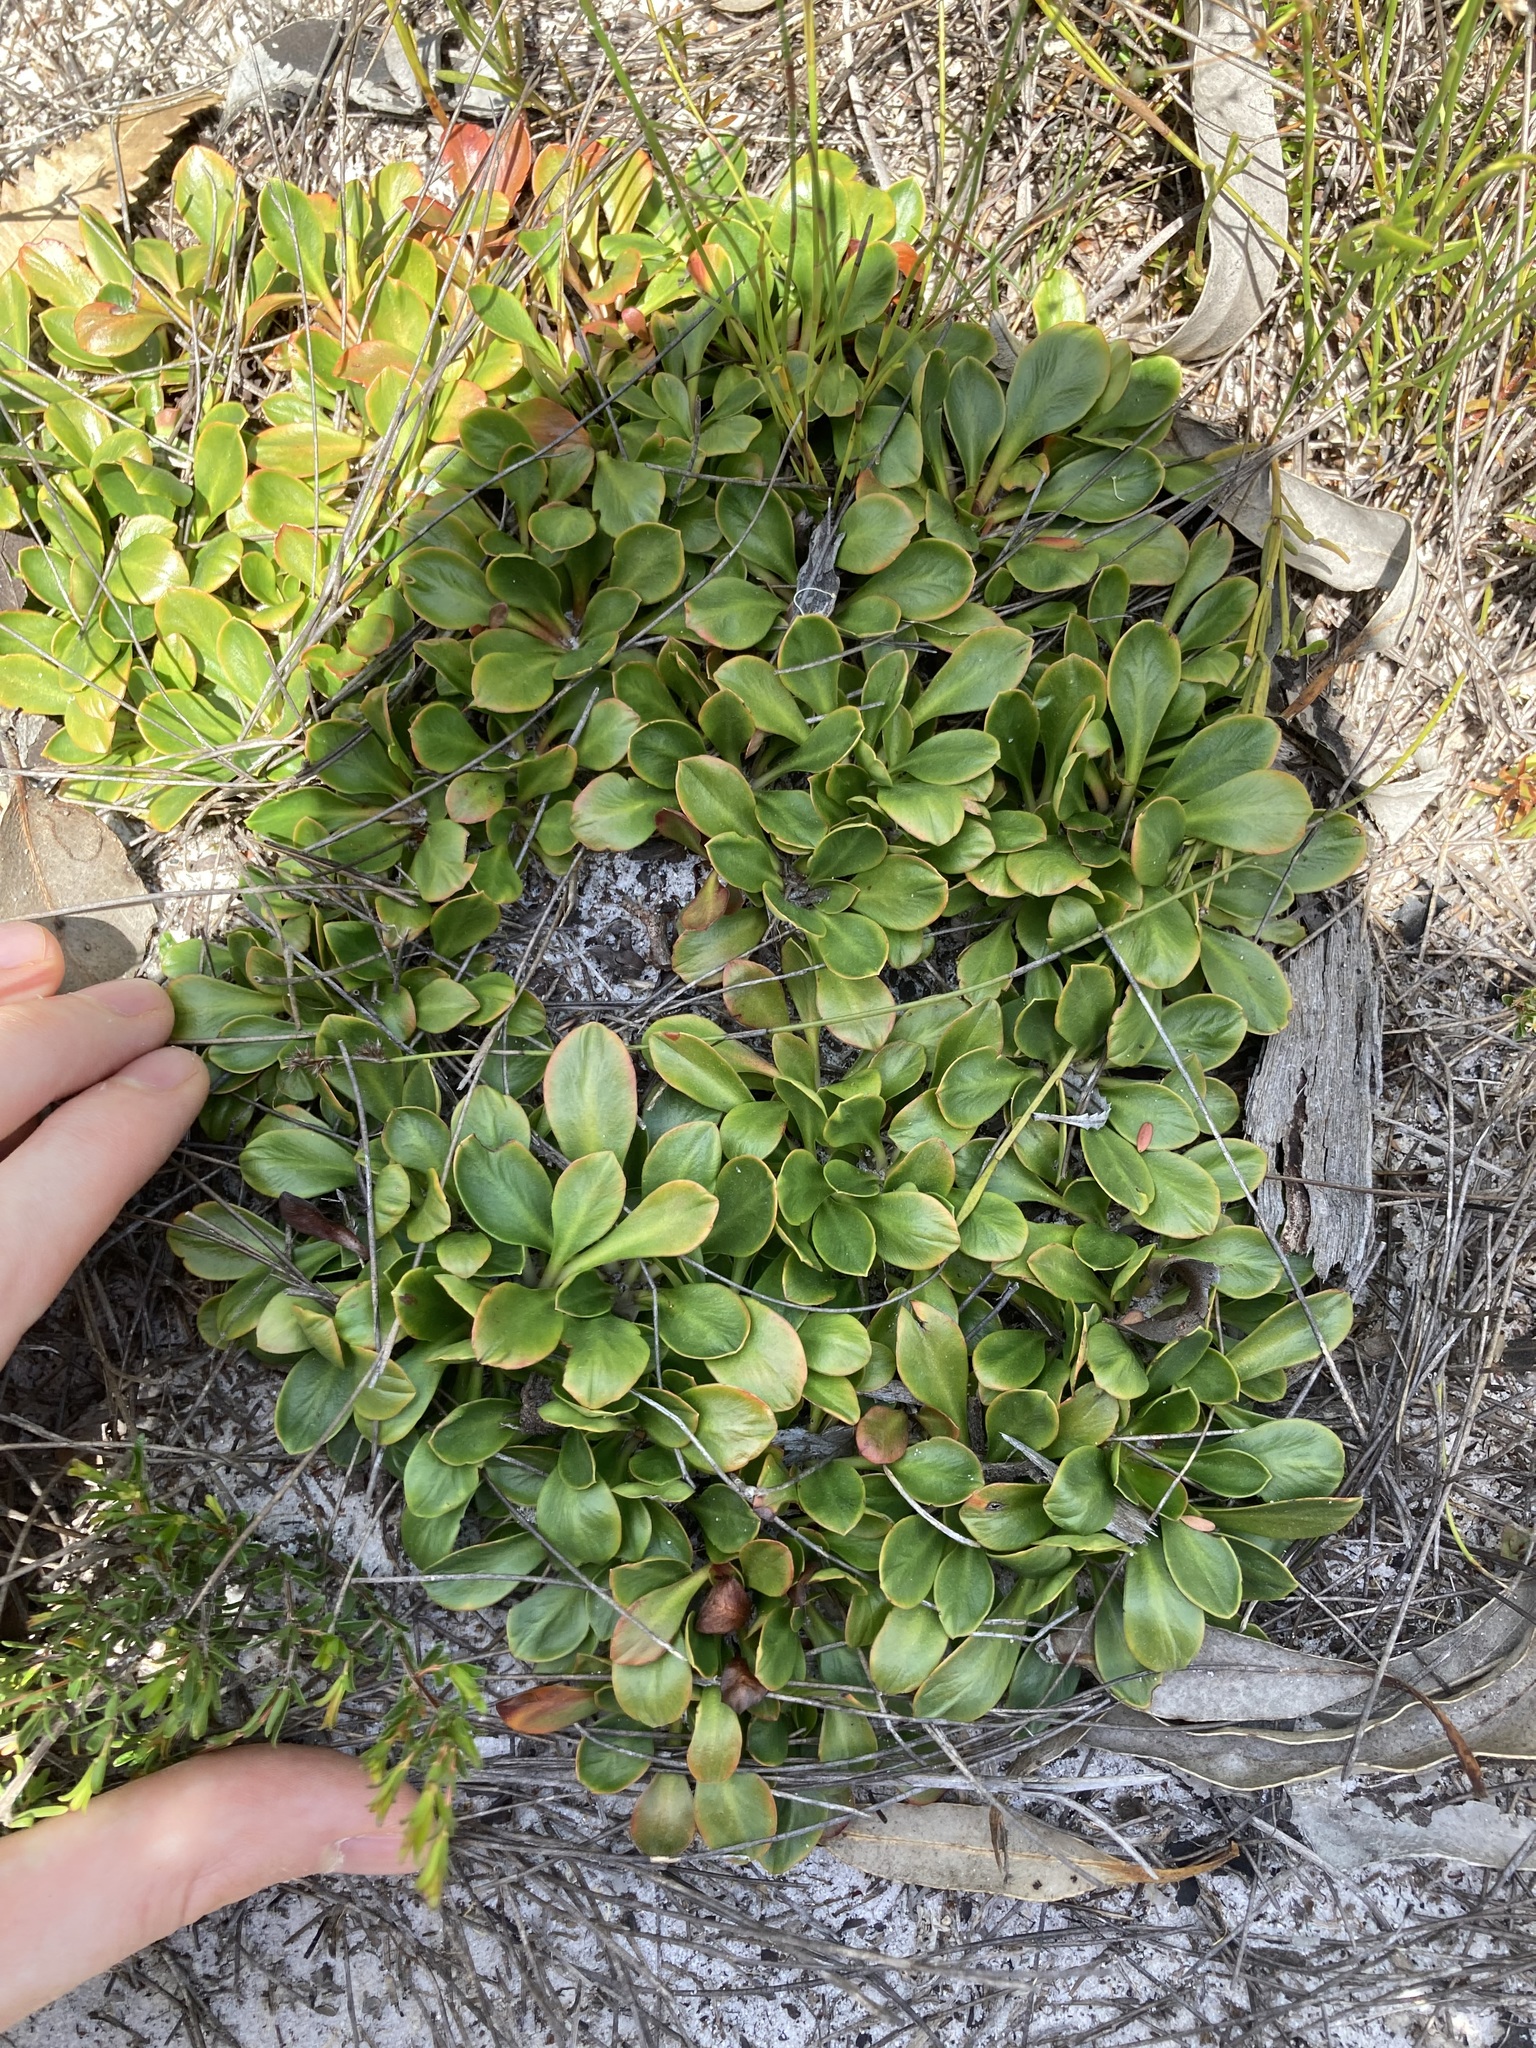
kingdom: Plantae
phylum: Tracheophyta
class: Magnoliopsida
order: Asterales
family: Stylidiaceae
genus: Stylidium
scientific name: Stylidium ornatum
